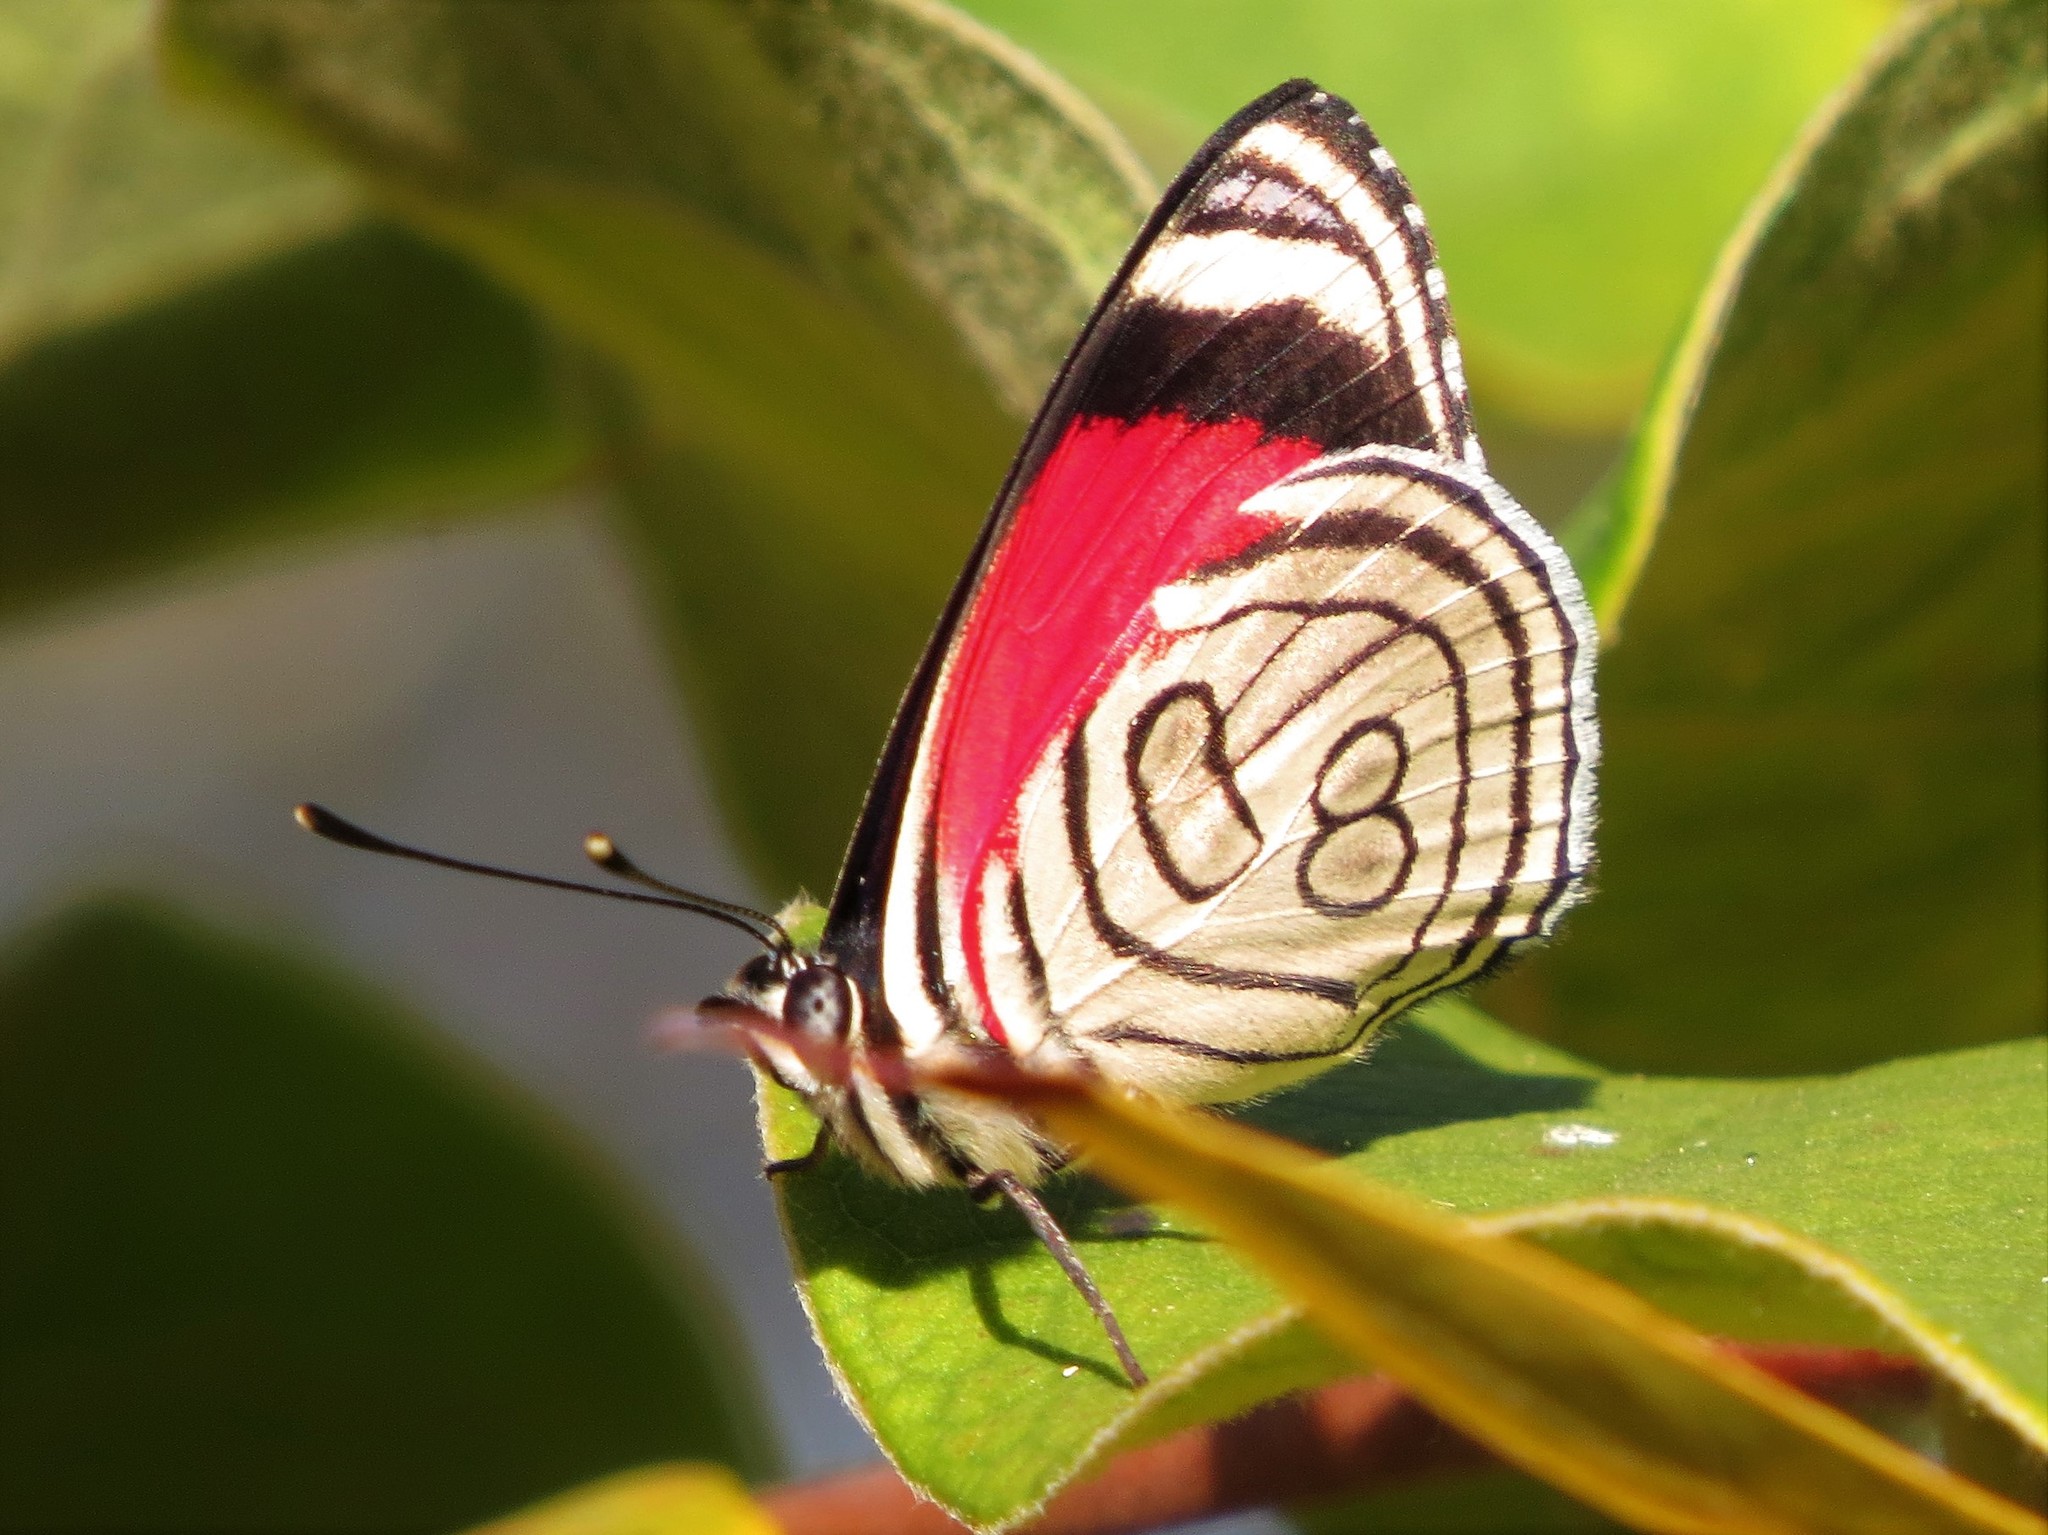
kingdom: Animalia
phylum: Arthropoda
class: Insecta
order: Lepidoptera
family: Nymphalidae
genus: Diaethria
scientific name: Diaethria candrena
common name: Number eighty
